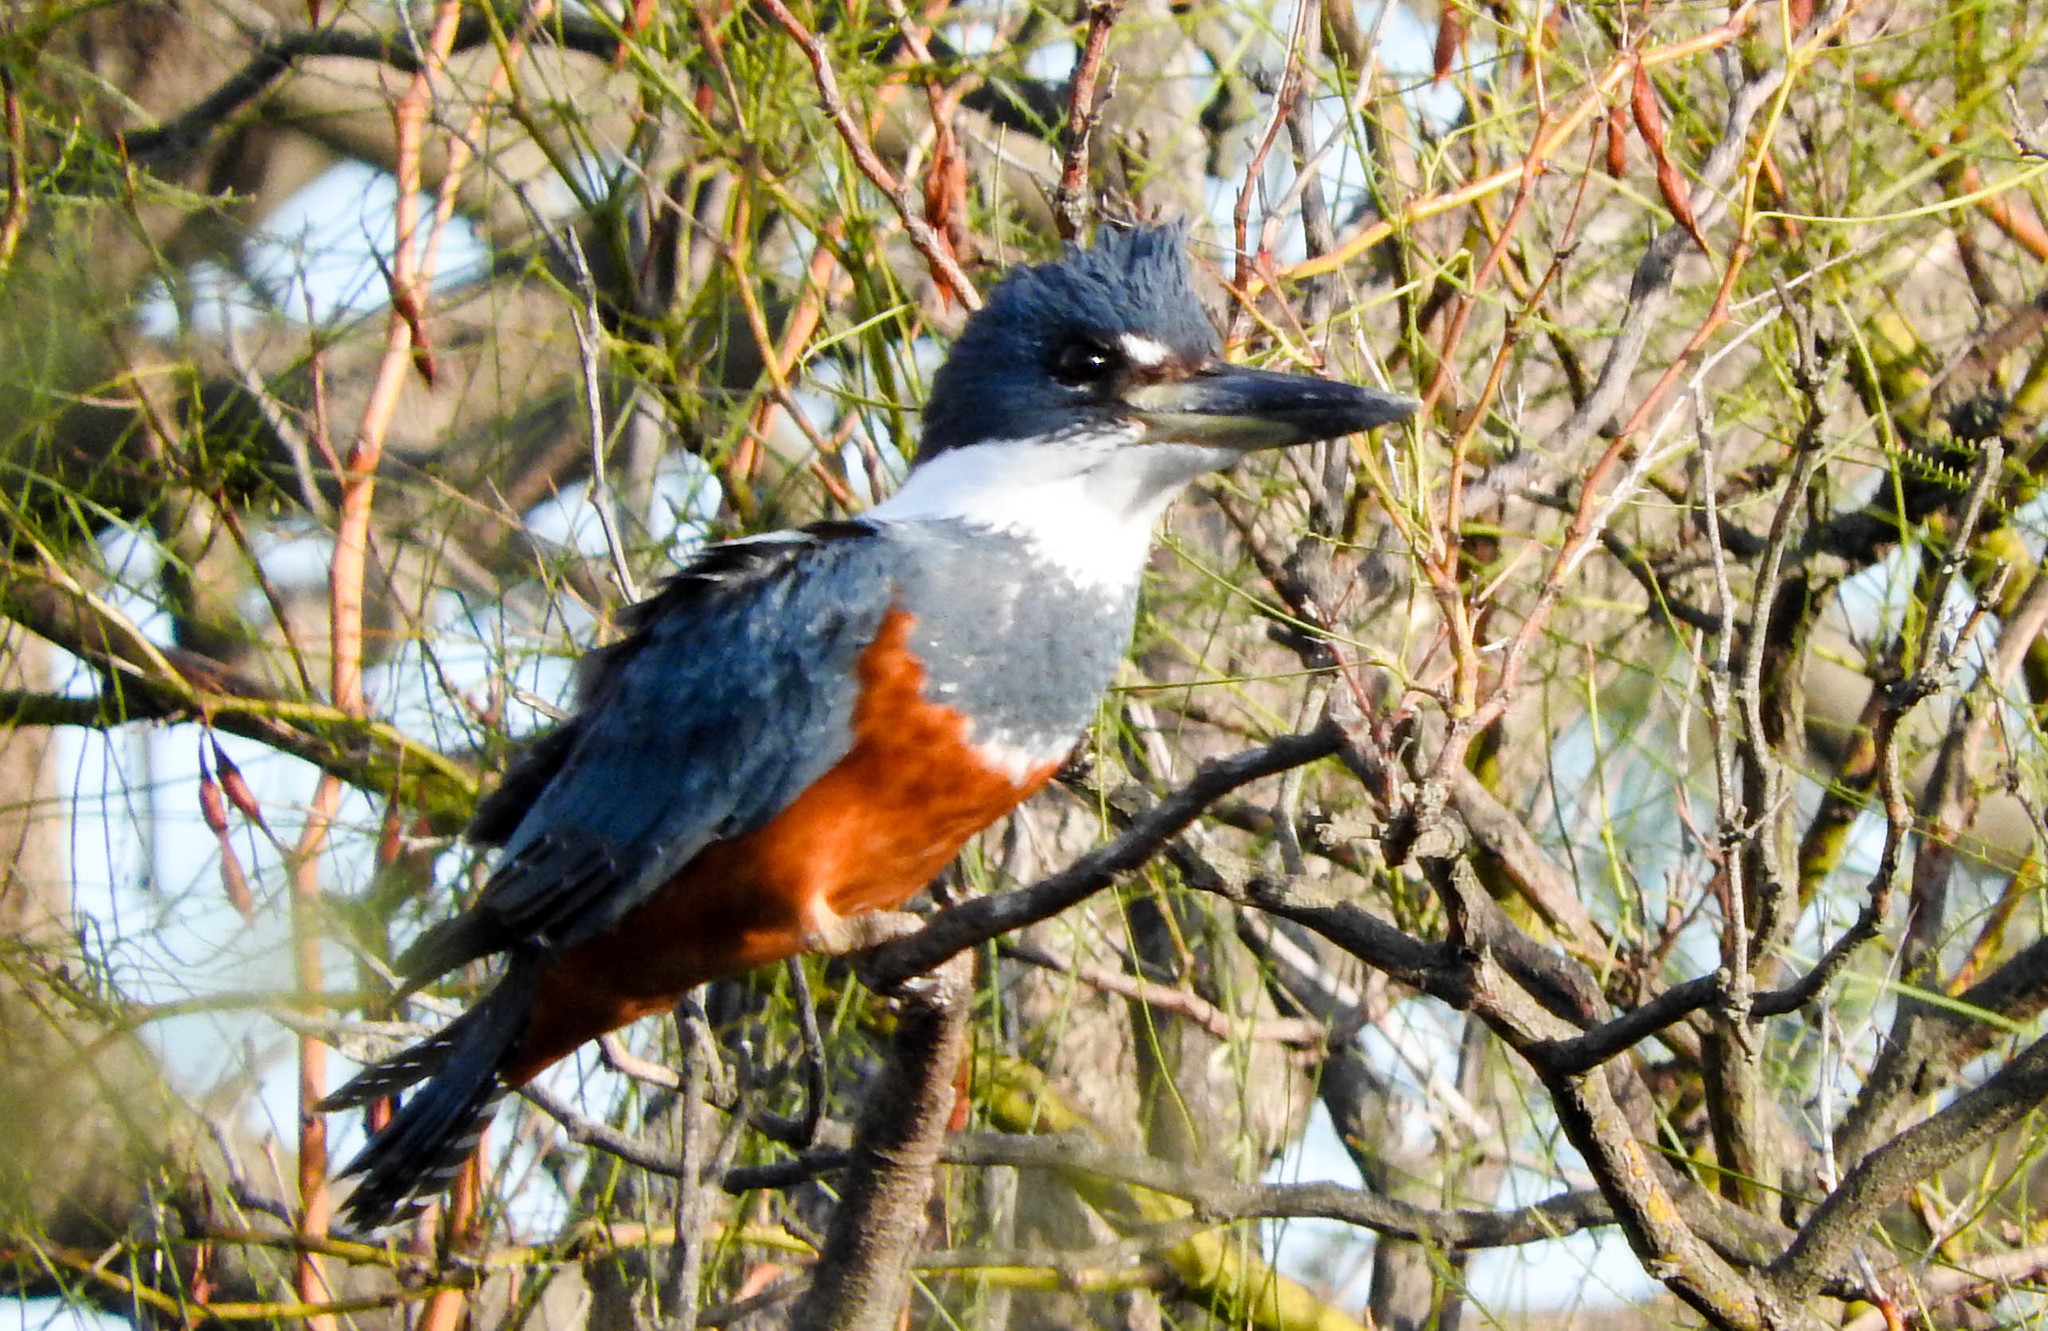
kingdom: Animalia
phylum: Chordata
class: Aves
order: Coraciiformes
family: Alcedinidae
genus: Megaceryle
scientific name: Megaceryle torquata
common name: Ringed kingfisher
